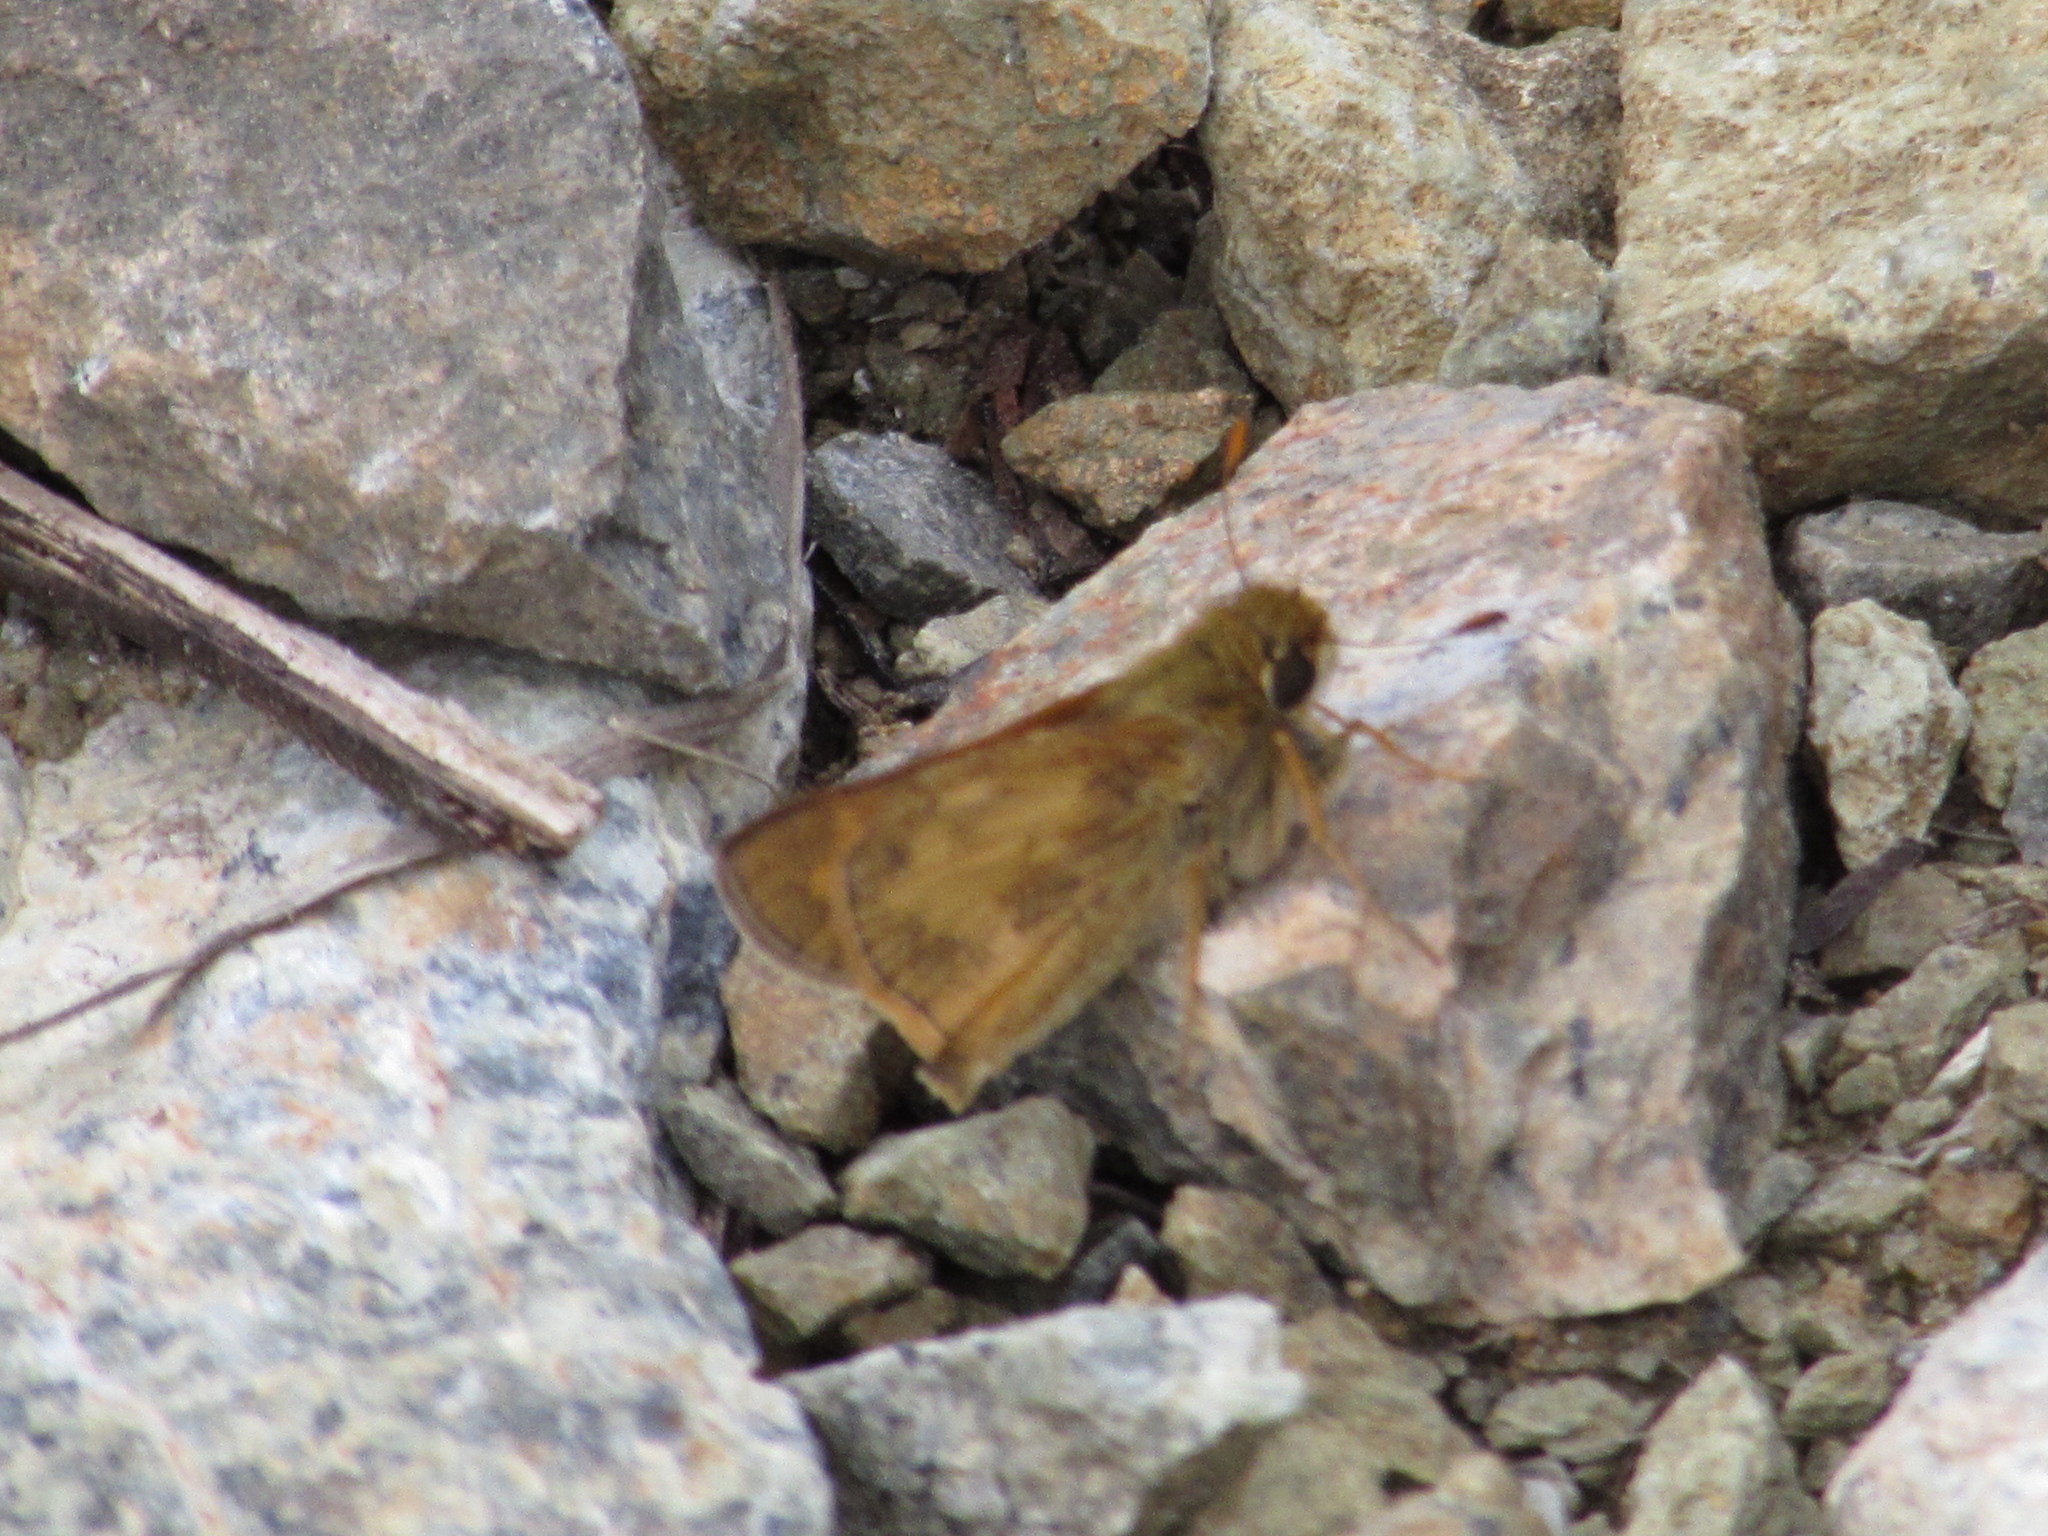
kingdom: Animalia
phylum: Arthropoda
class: Insecta
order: Lepidoptera
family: Hesperiidae
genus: Atalopedes
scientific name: Atalopedes
